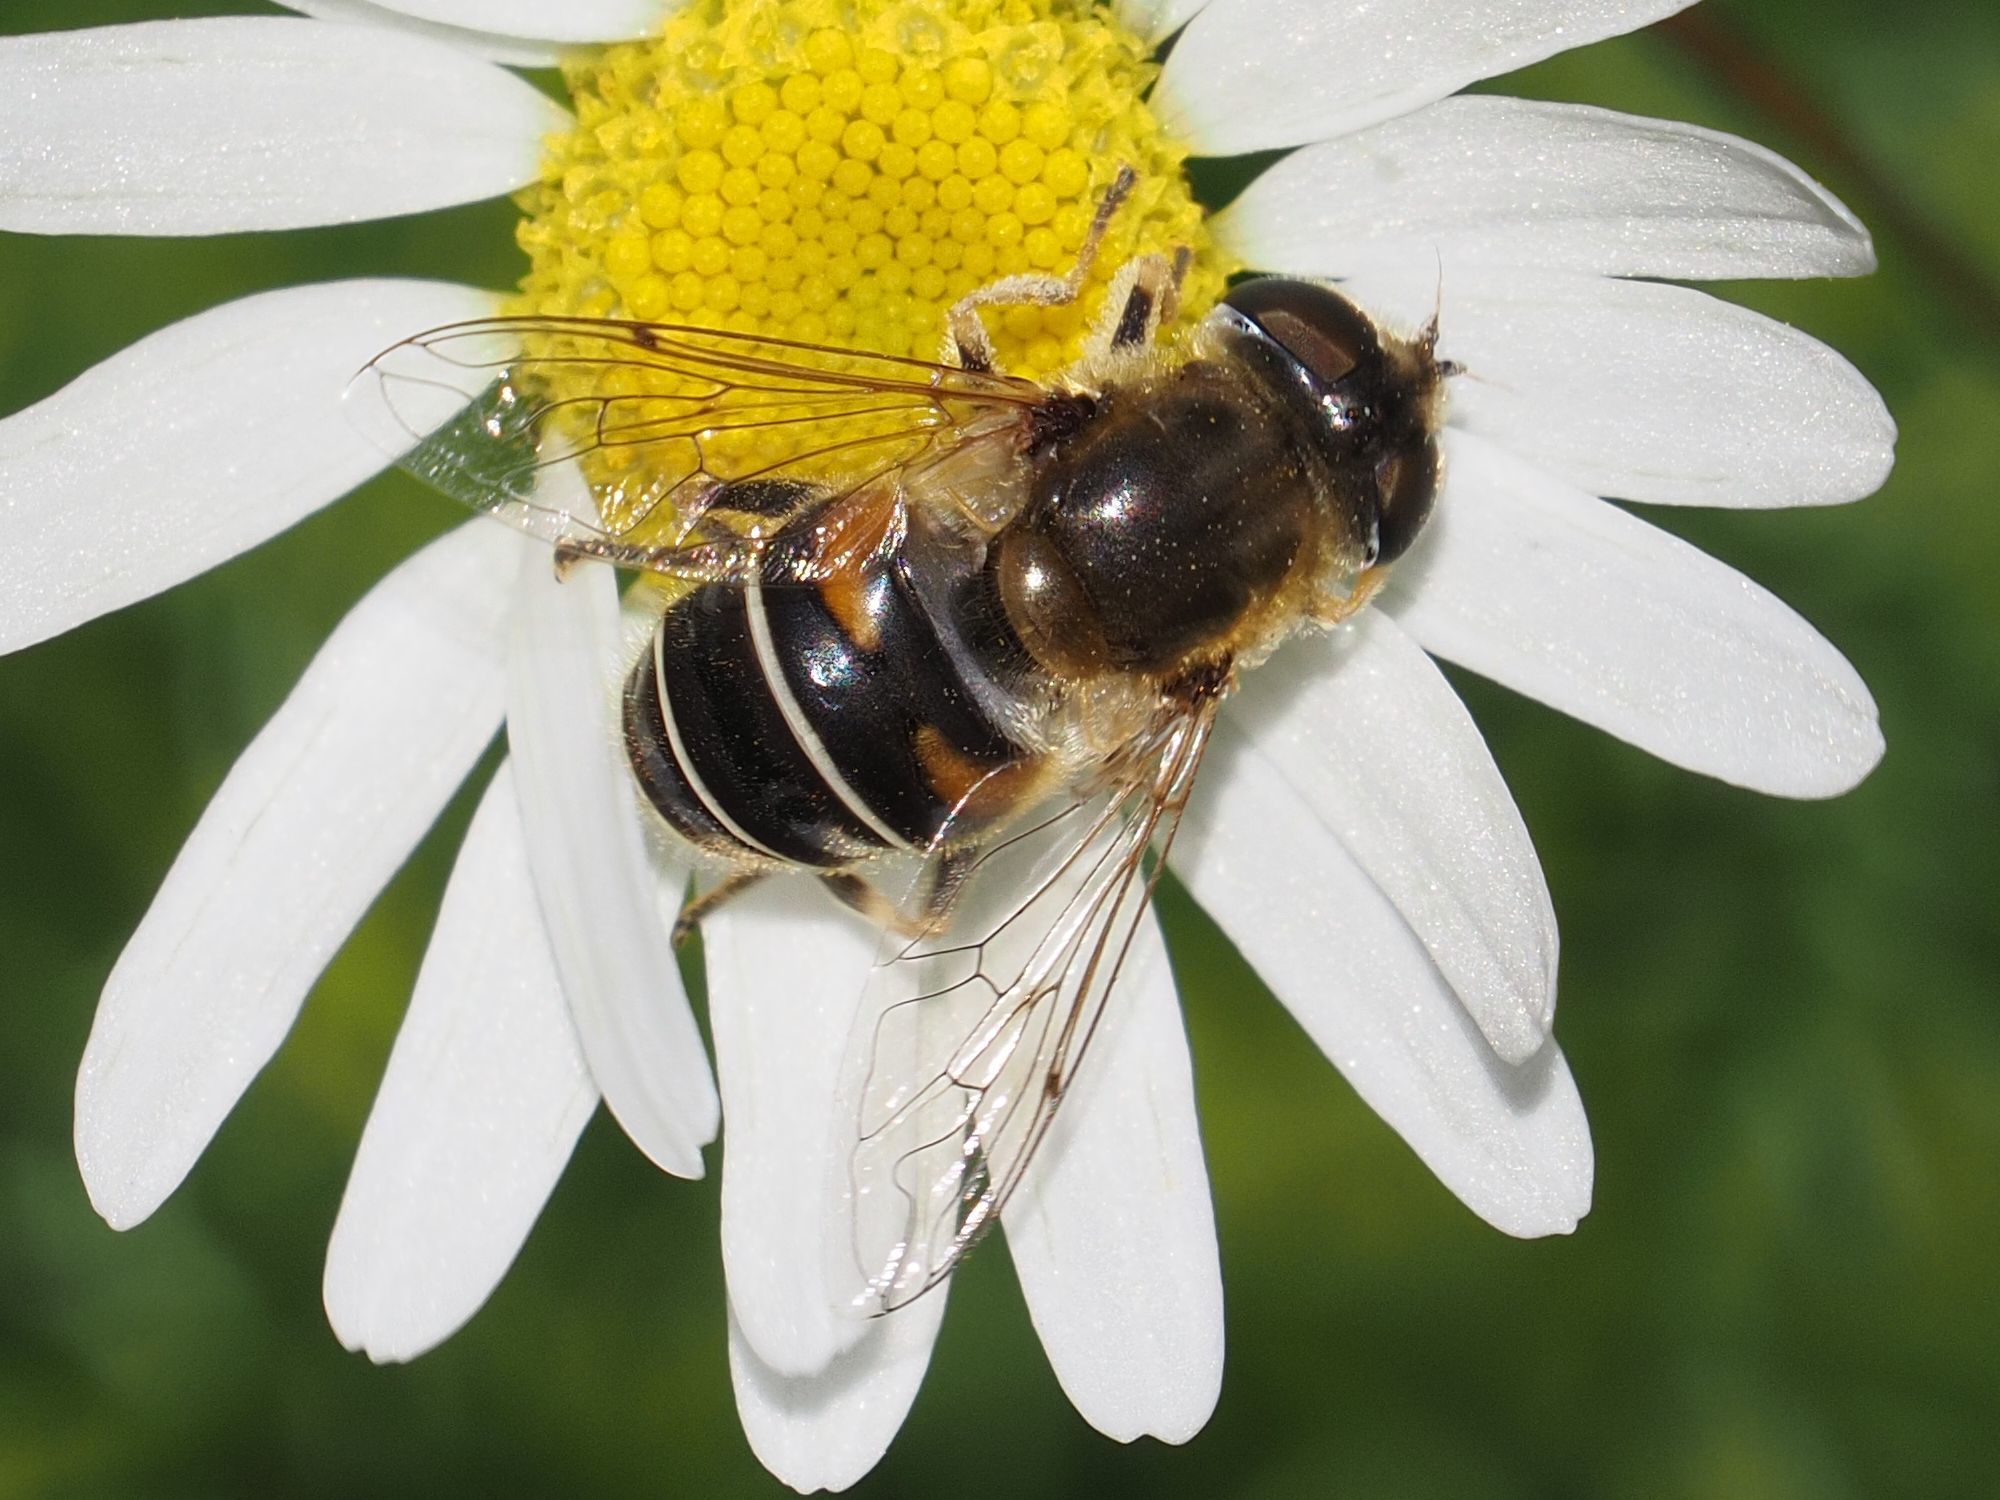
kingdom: Animalia
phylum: Arthropoda
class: Insecta
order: Diptera
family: Syrphidae
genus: Eristalis
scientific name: Eristalis nemorum
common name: Orange-spined drone fly
